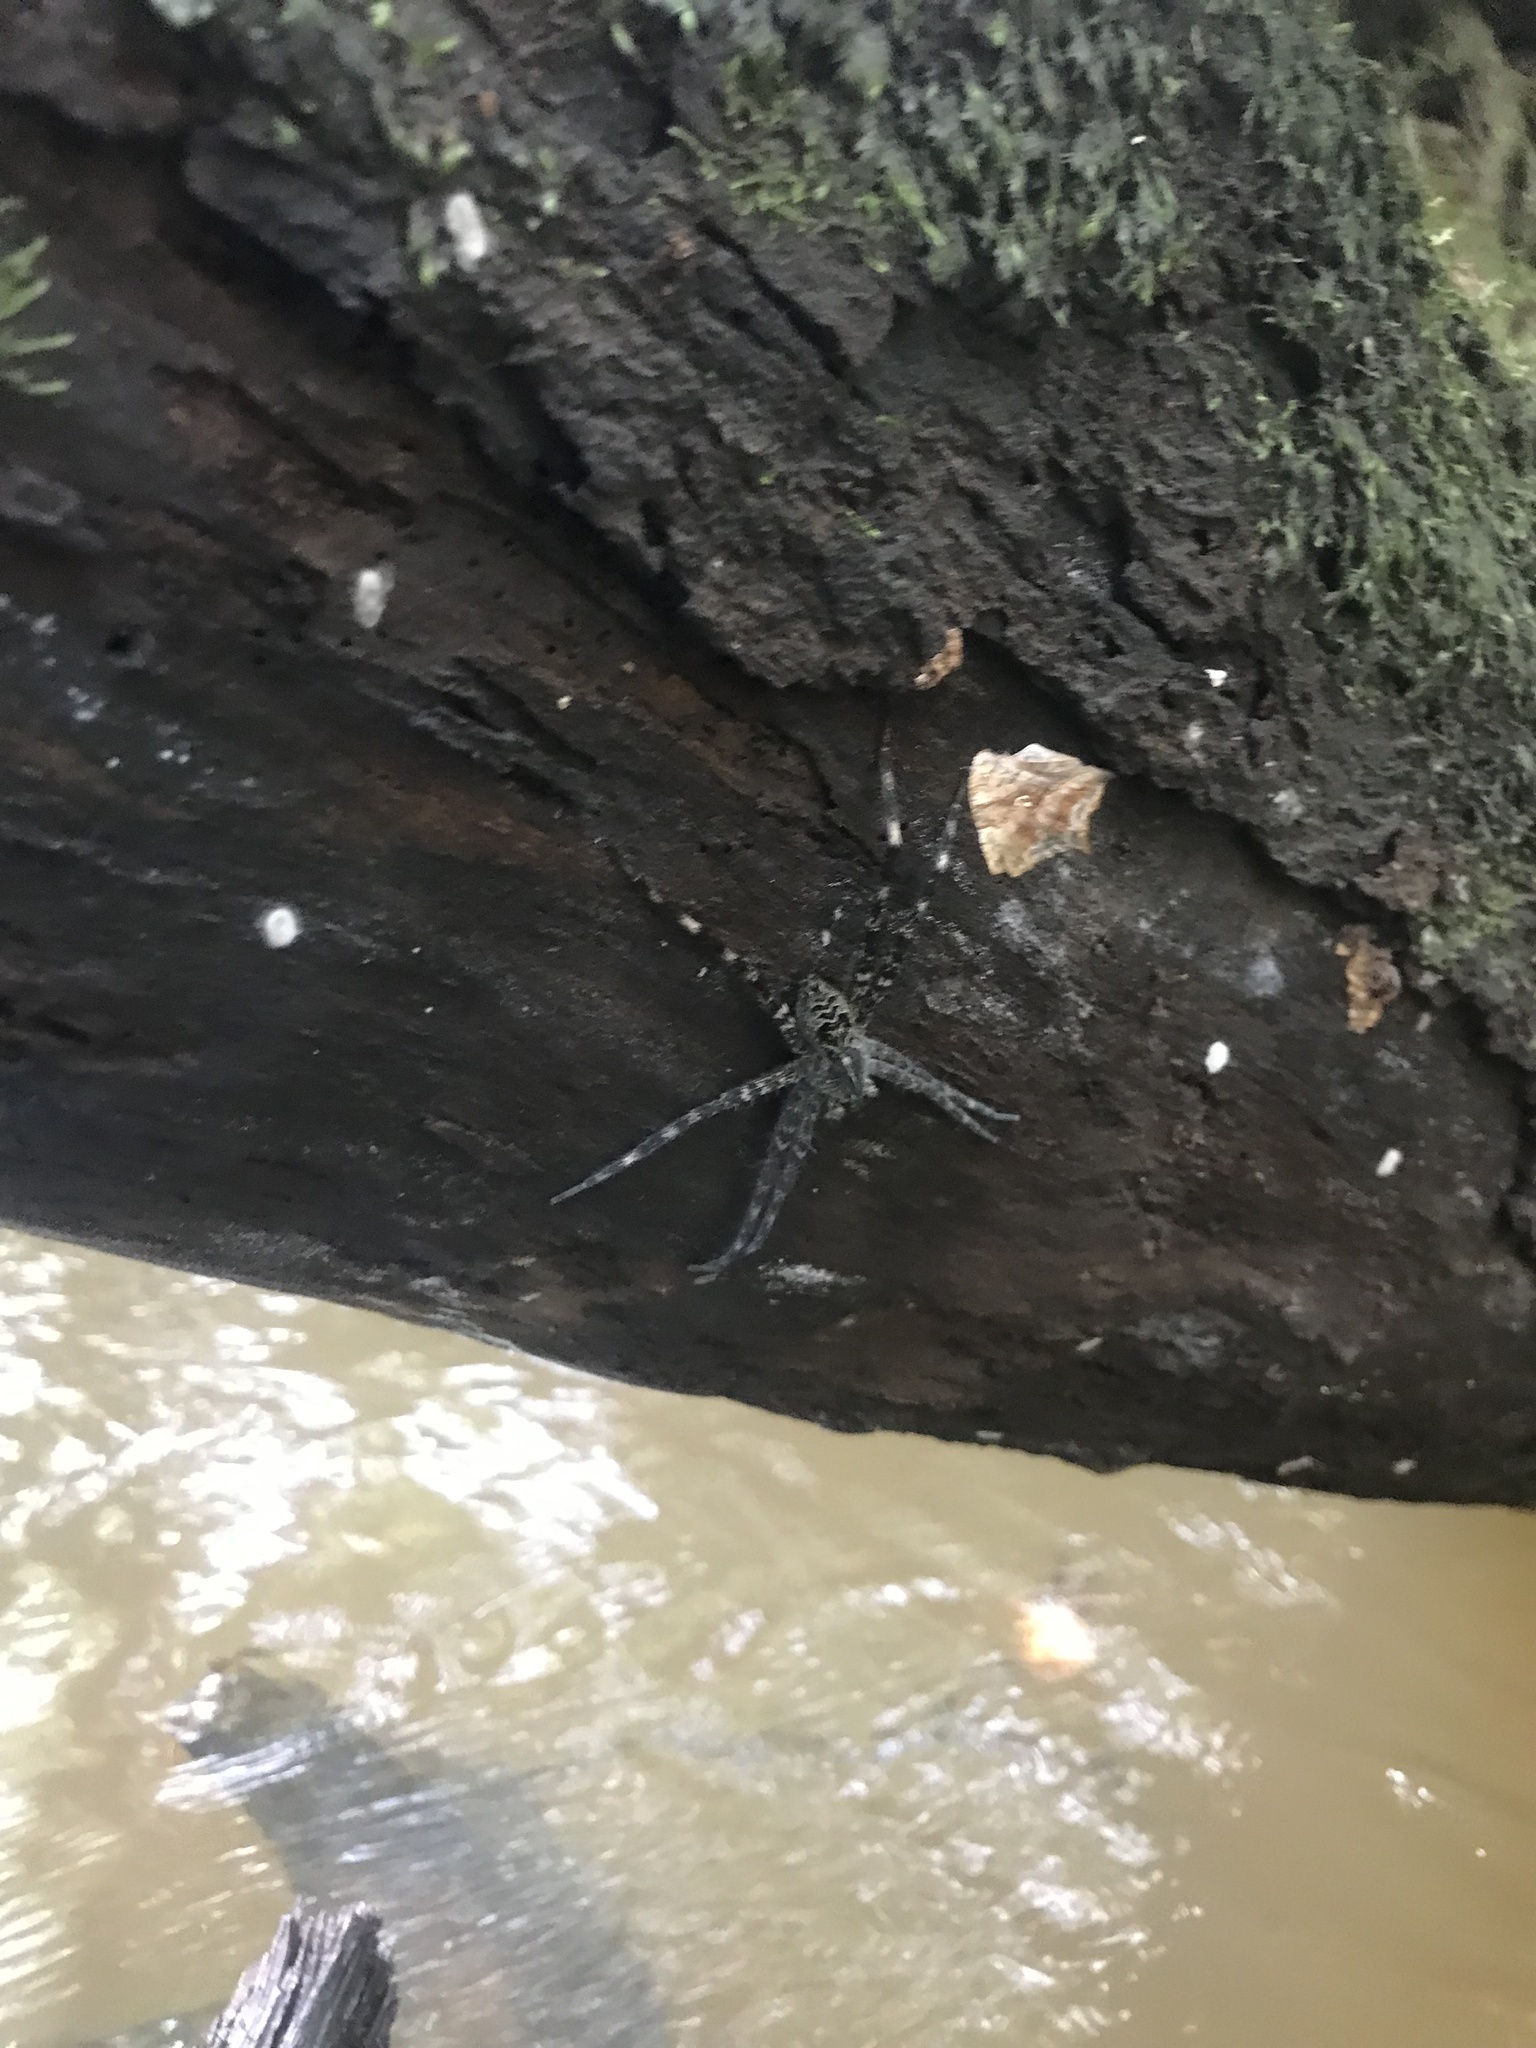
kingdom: Animalia
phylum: Arthropoda
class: Arachnida
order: Araneae
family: Pisauridae
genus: Dolomedes
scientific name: Dolomedes scriptus
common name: Striped fishing spider
